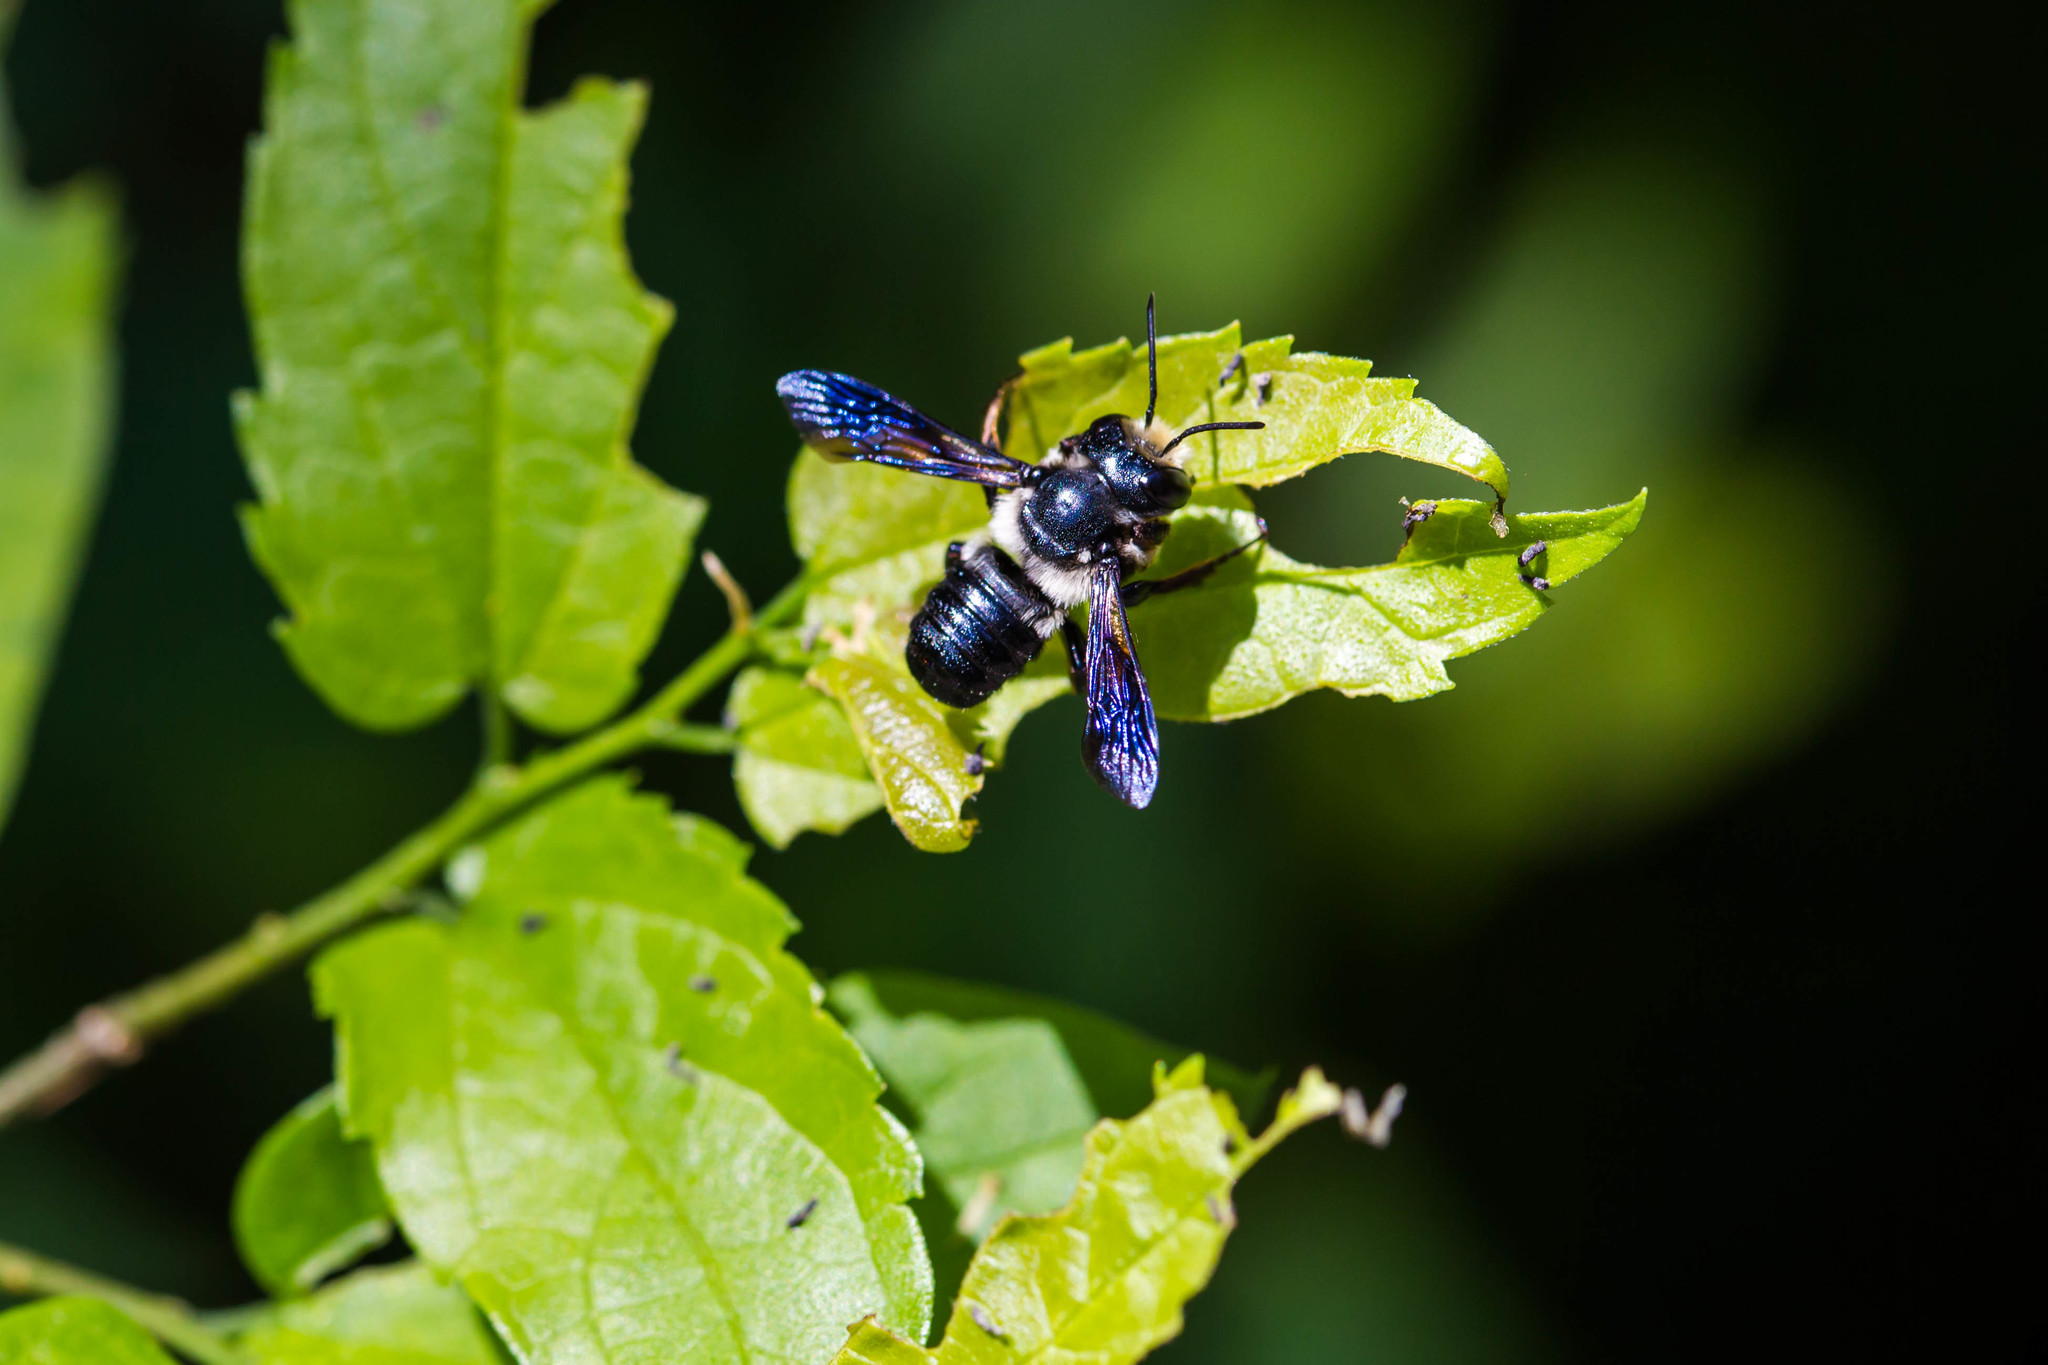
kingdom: Animalia
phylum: Arthropoda
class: Insecta
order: Hymenoptera
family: Megachilidae
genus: Megachile
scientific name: Megachile xylocopoides
